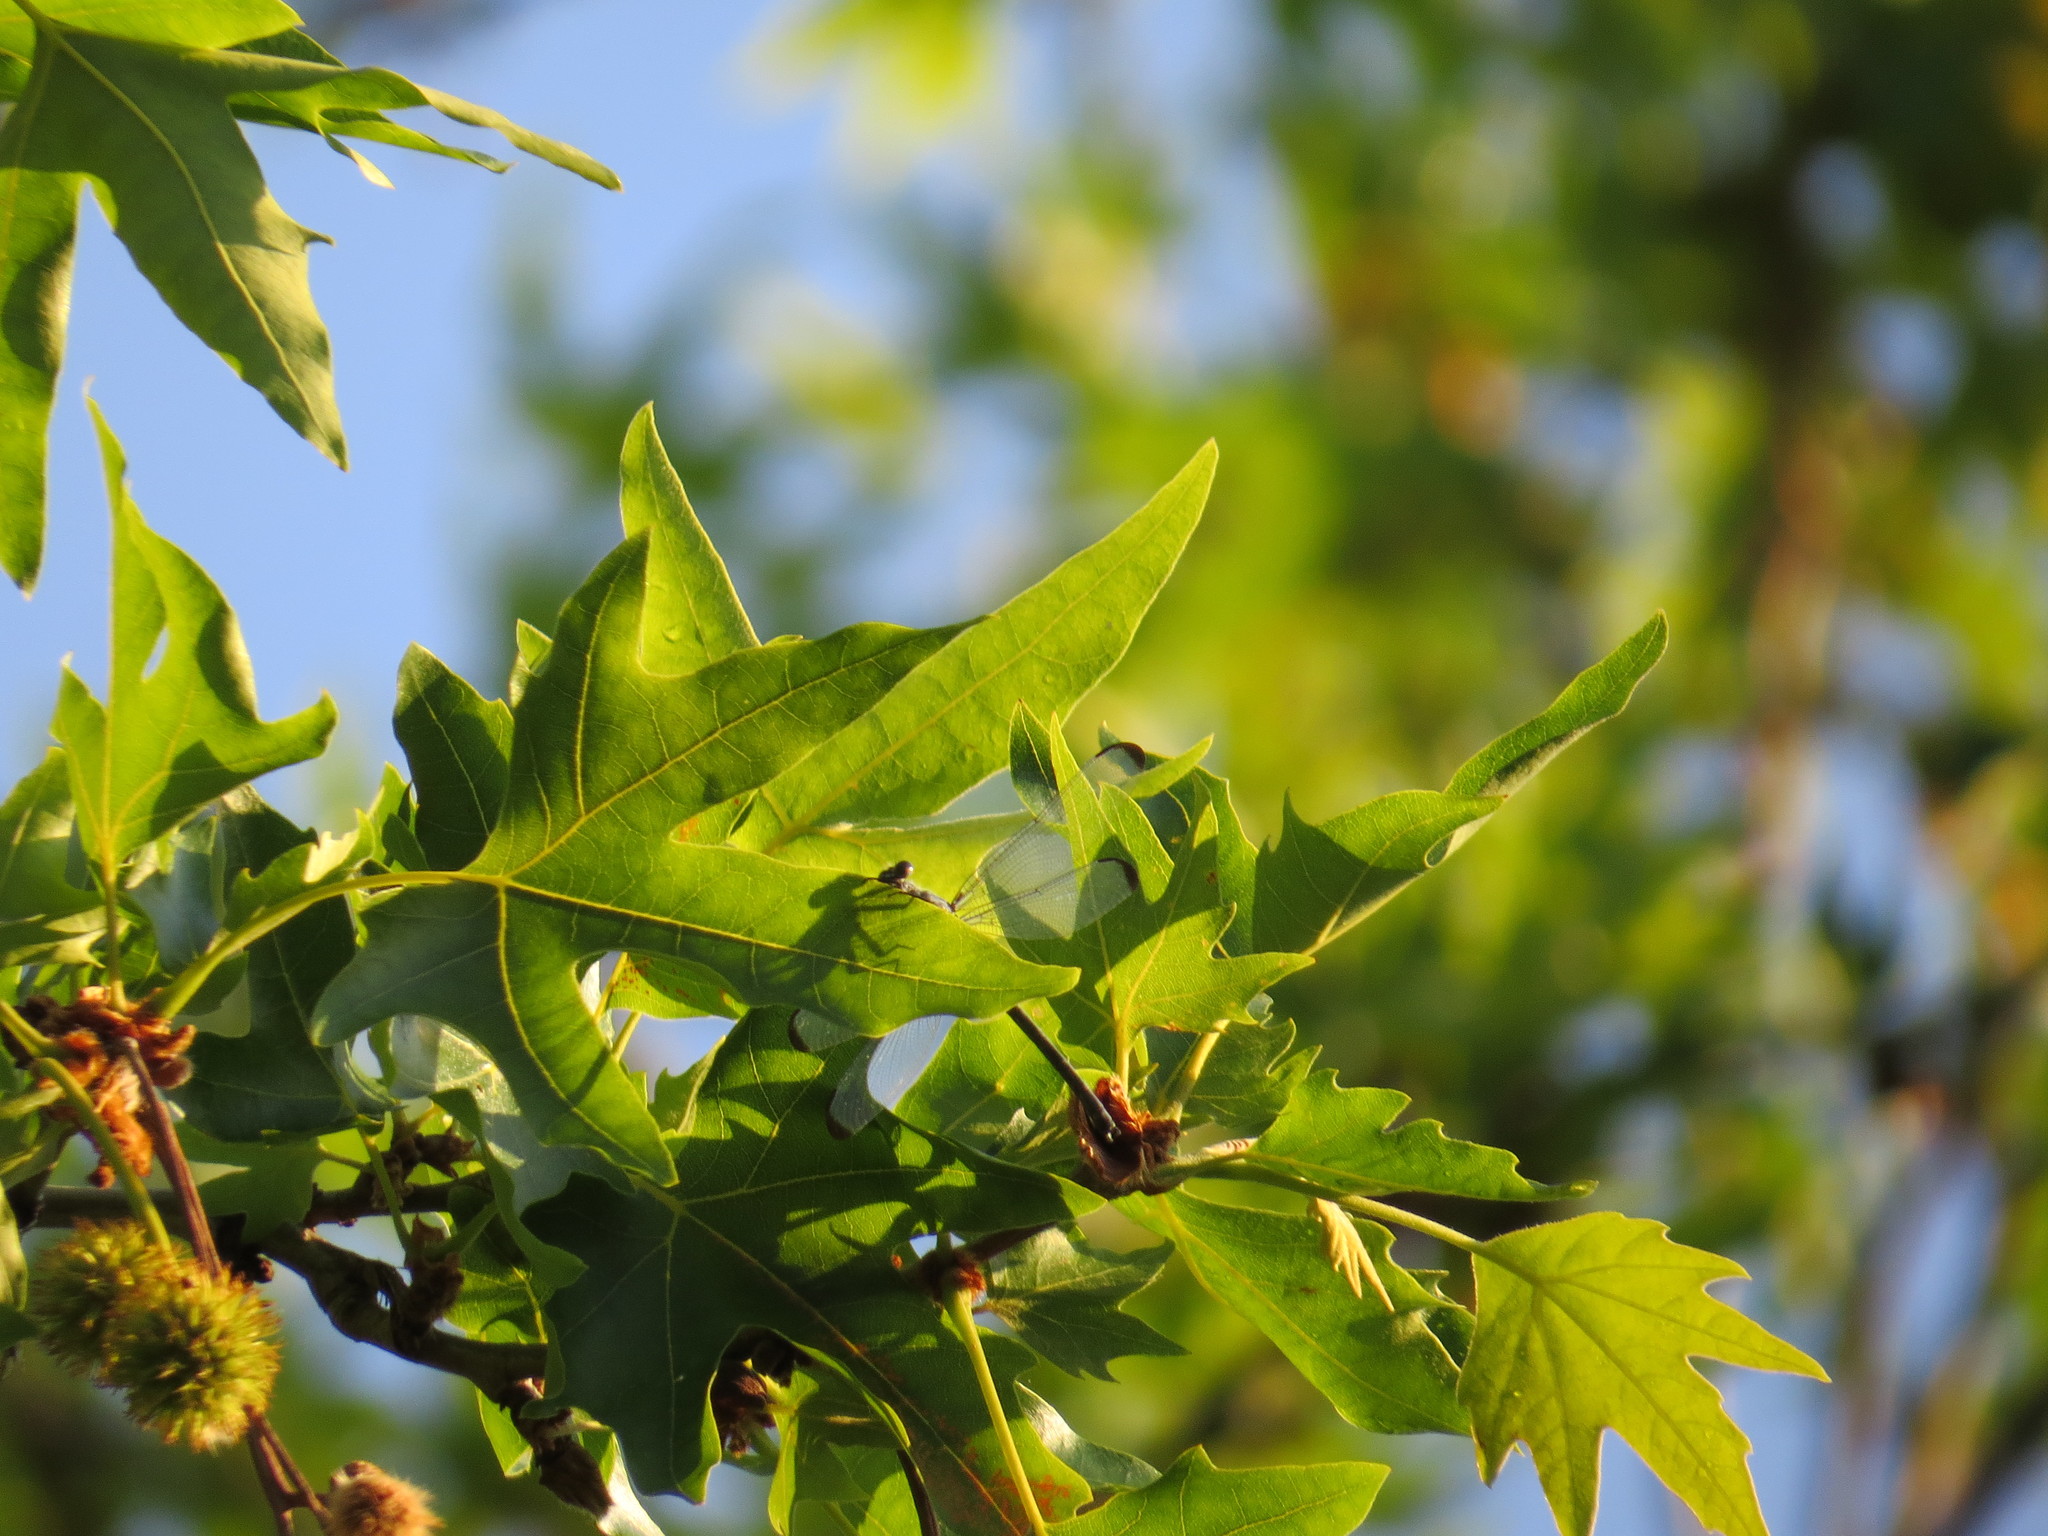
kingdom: Animalia
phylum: Arthropoda
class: Insecta
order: Odonata
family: Euphaeidae
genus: Epallage
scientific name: Epallage fatime
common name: Odalisque
